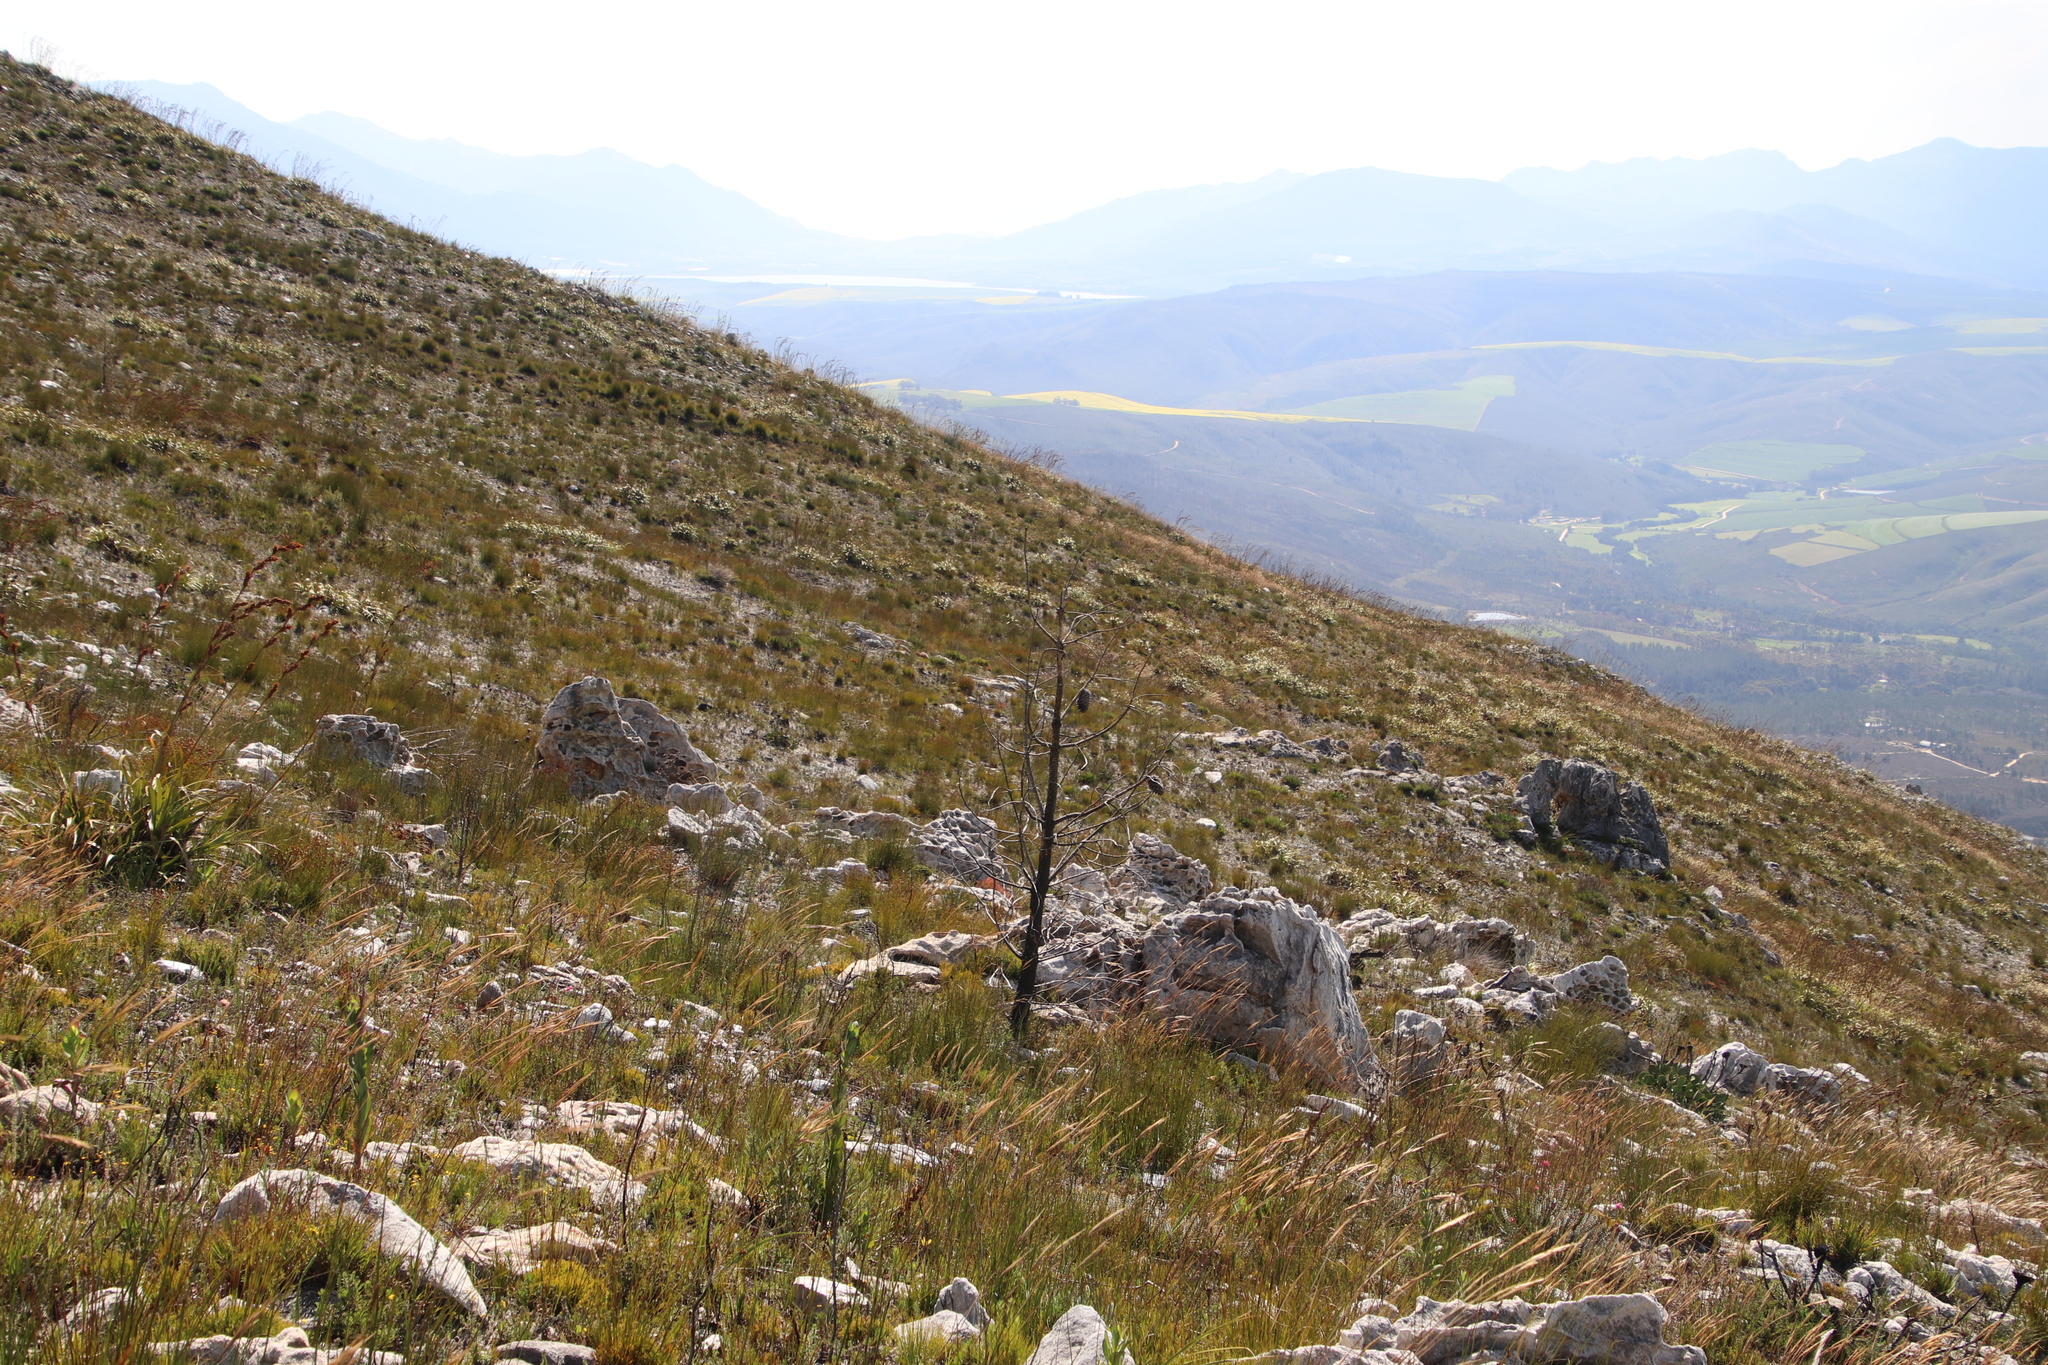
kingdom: Plantae
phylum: Tracheophyta
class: Pinopsida
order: Pinales
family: Pinaceae
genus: Pinus
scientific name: Pinus pinaster
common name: Maritime pine
